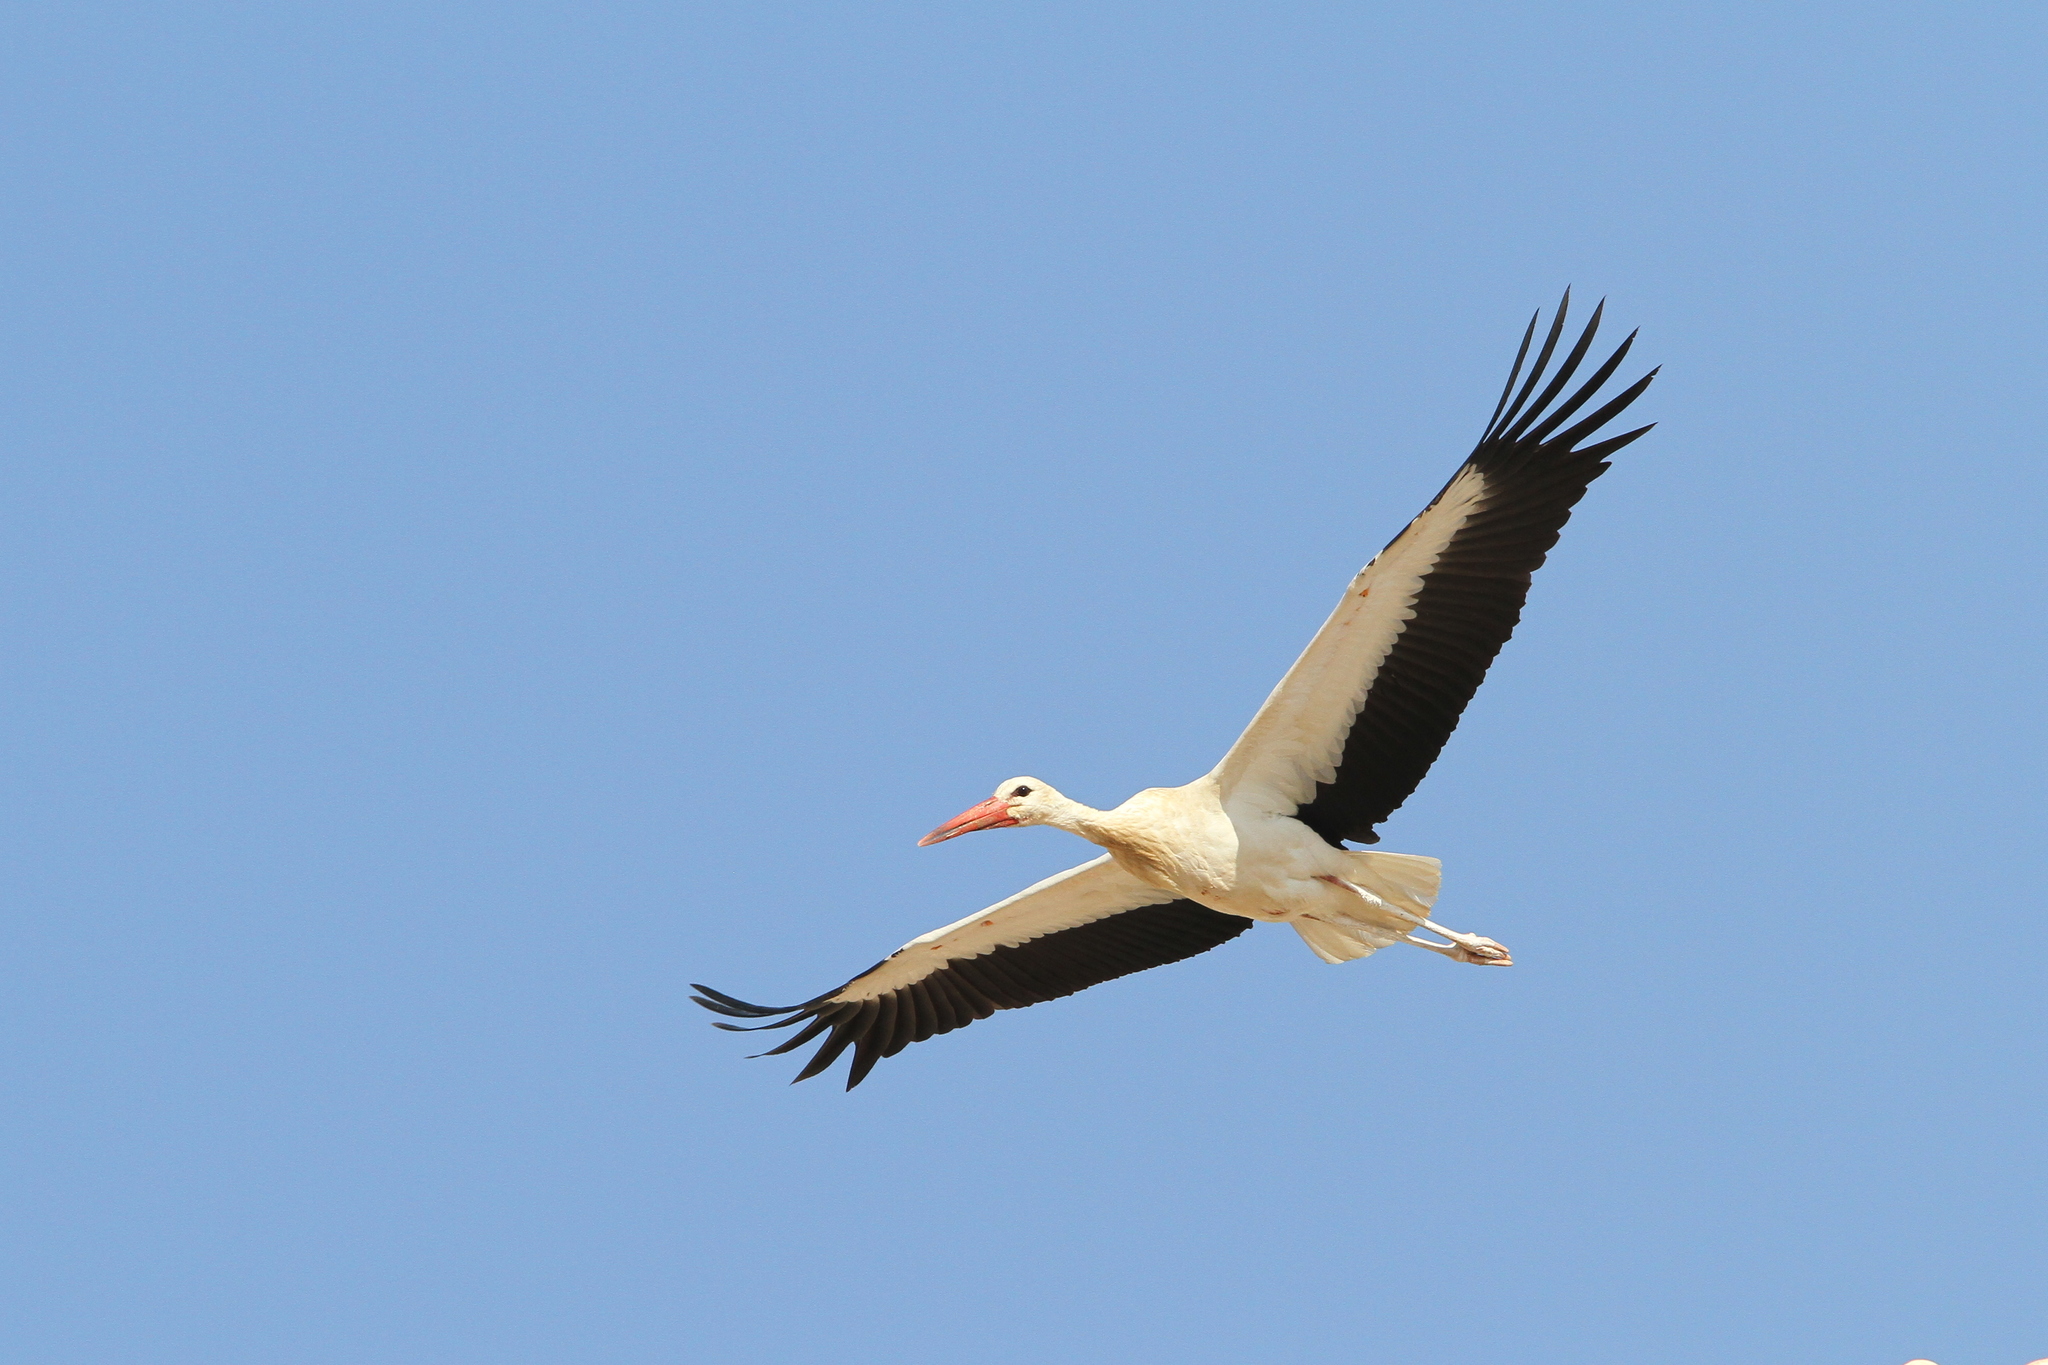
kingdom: Animalia
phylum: Chordata
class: Aves
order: Ciconiiformes
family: Ciconiidae
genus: Ciconia
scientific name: Ciconia ciconia
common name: White stork
